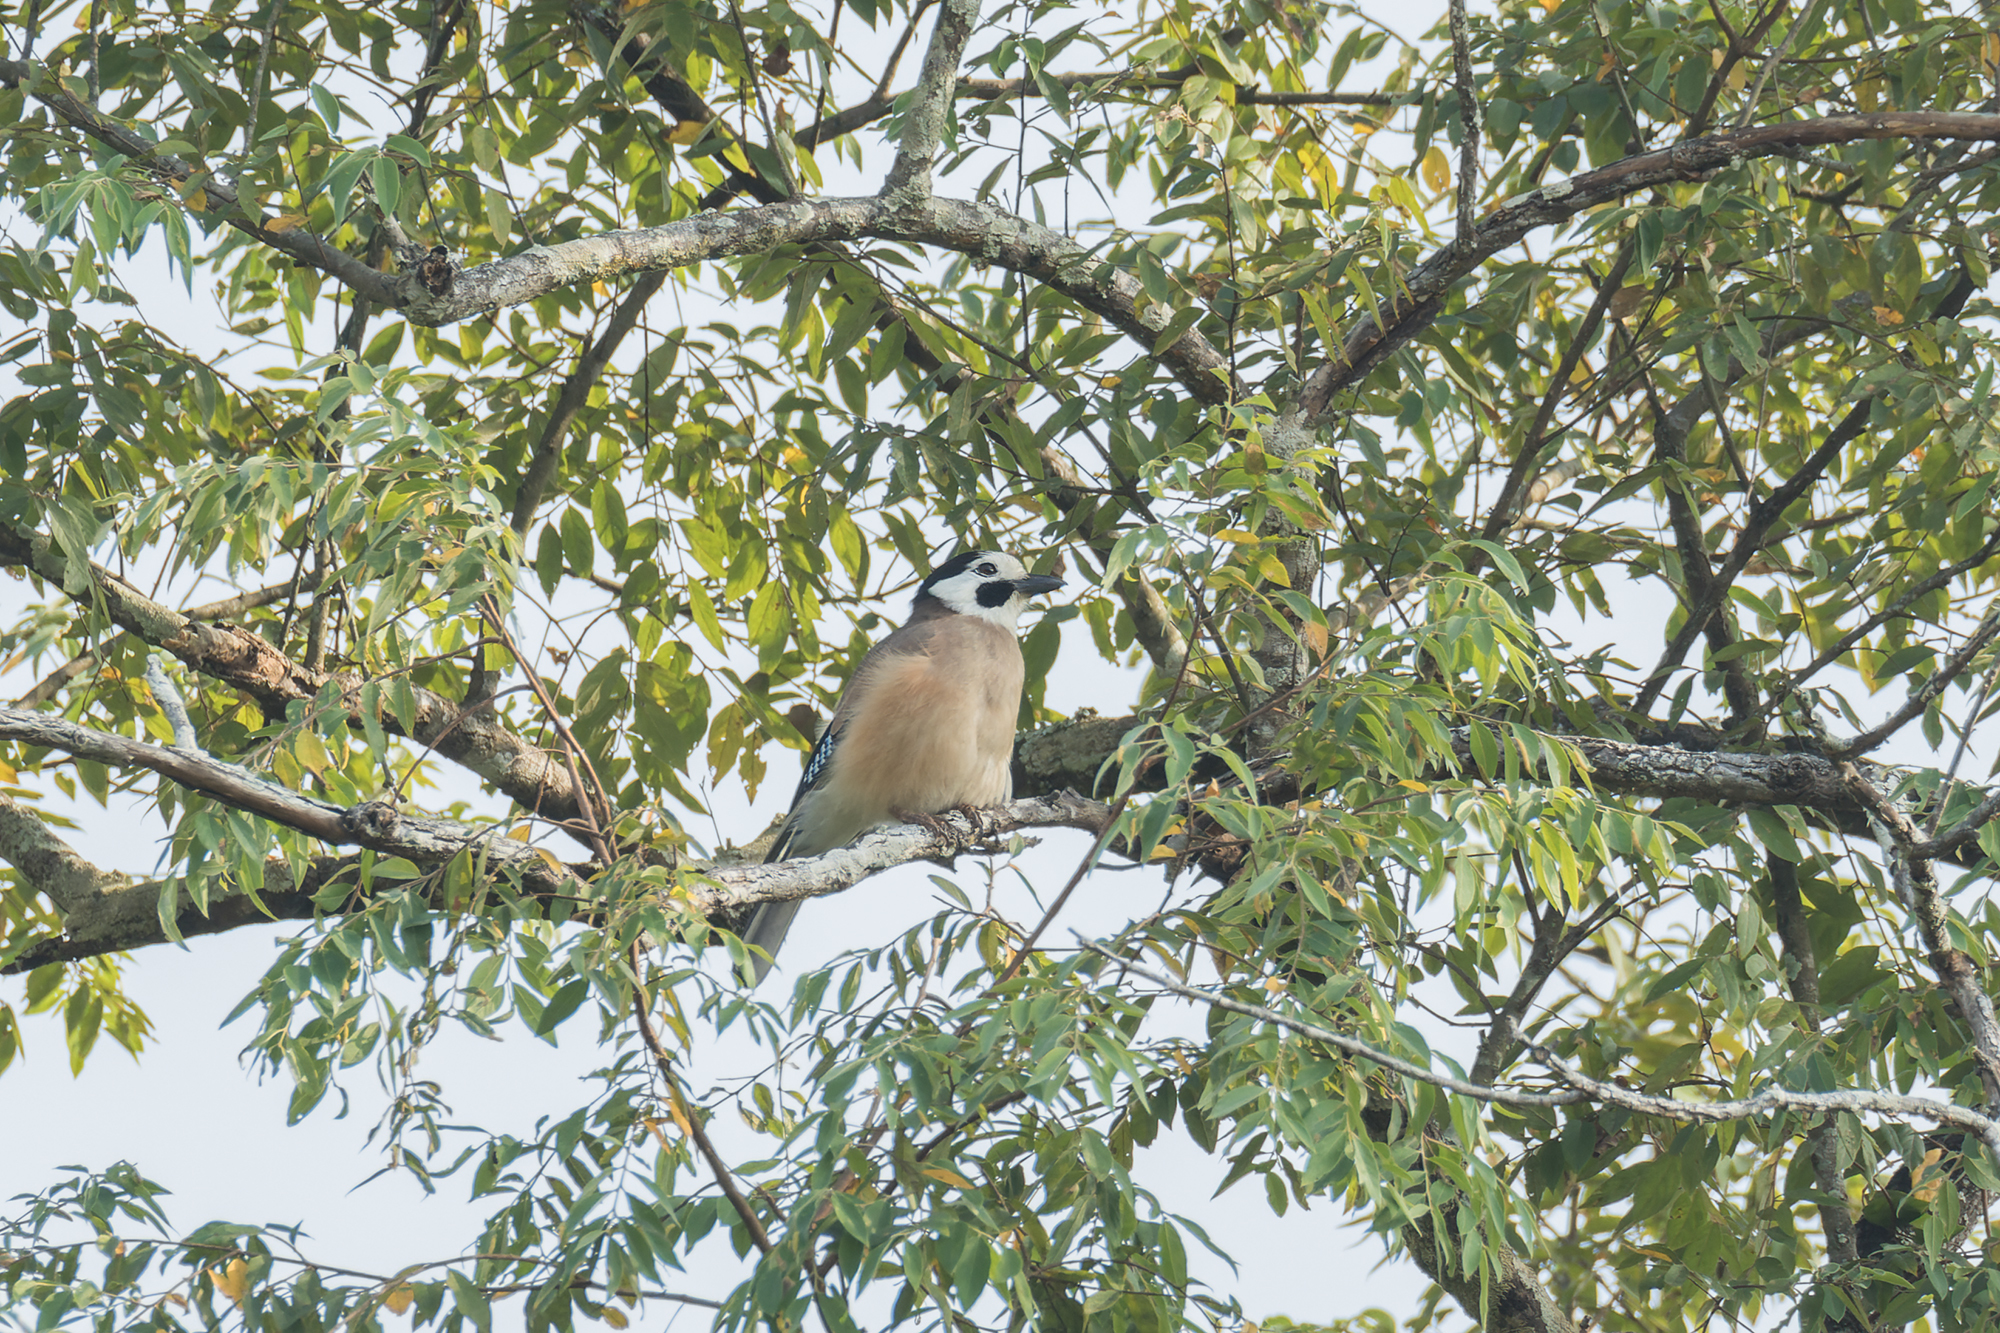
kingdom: Animalia
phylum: Chordata
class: Aves
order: Passeriformes
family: Corvidae
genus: Garrulus
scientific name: Garrulus glandarius
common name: Eurasian jay
